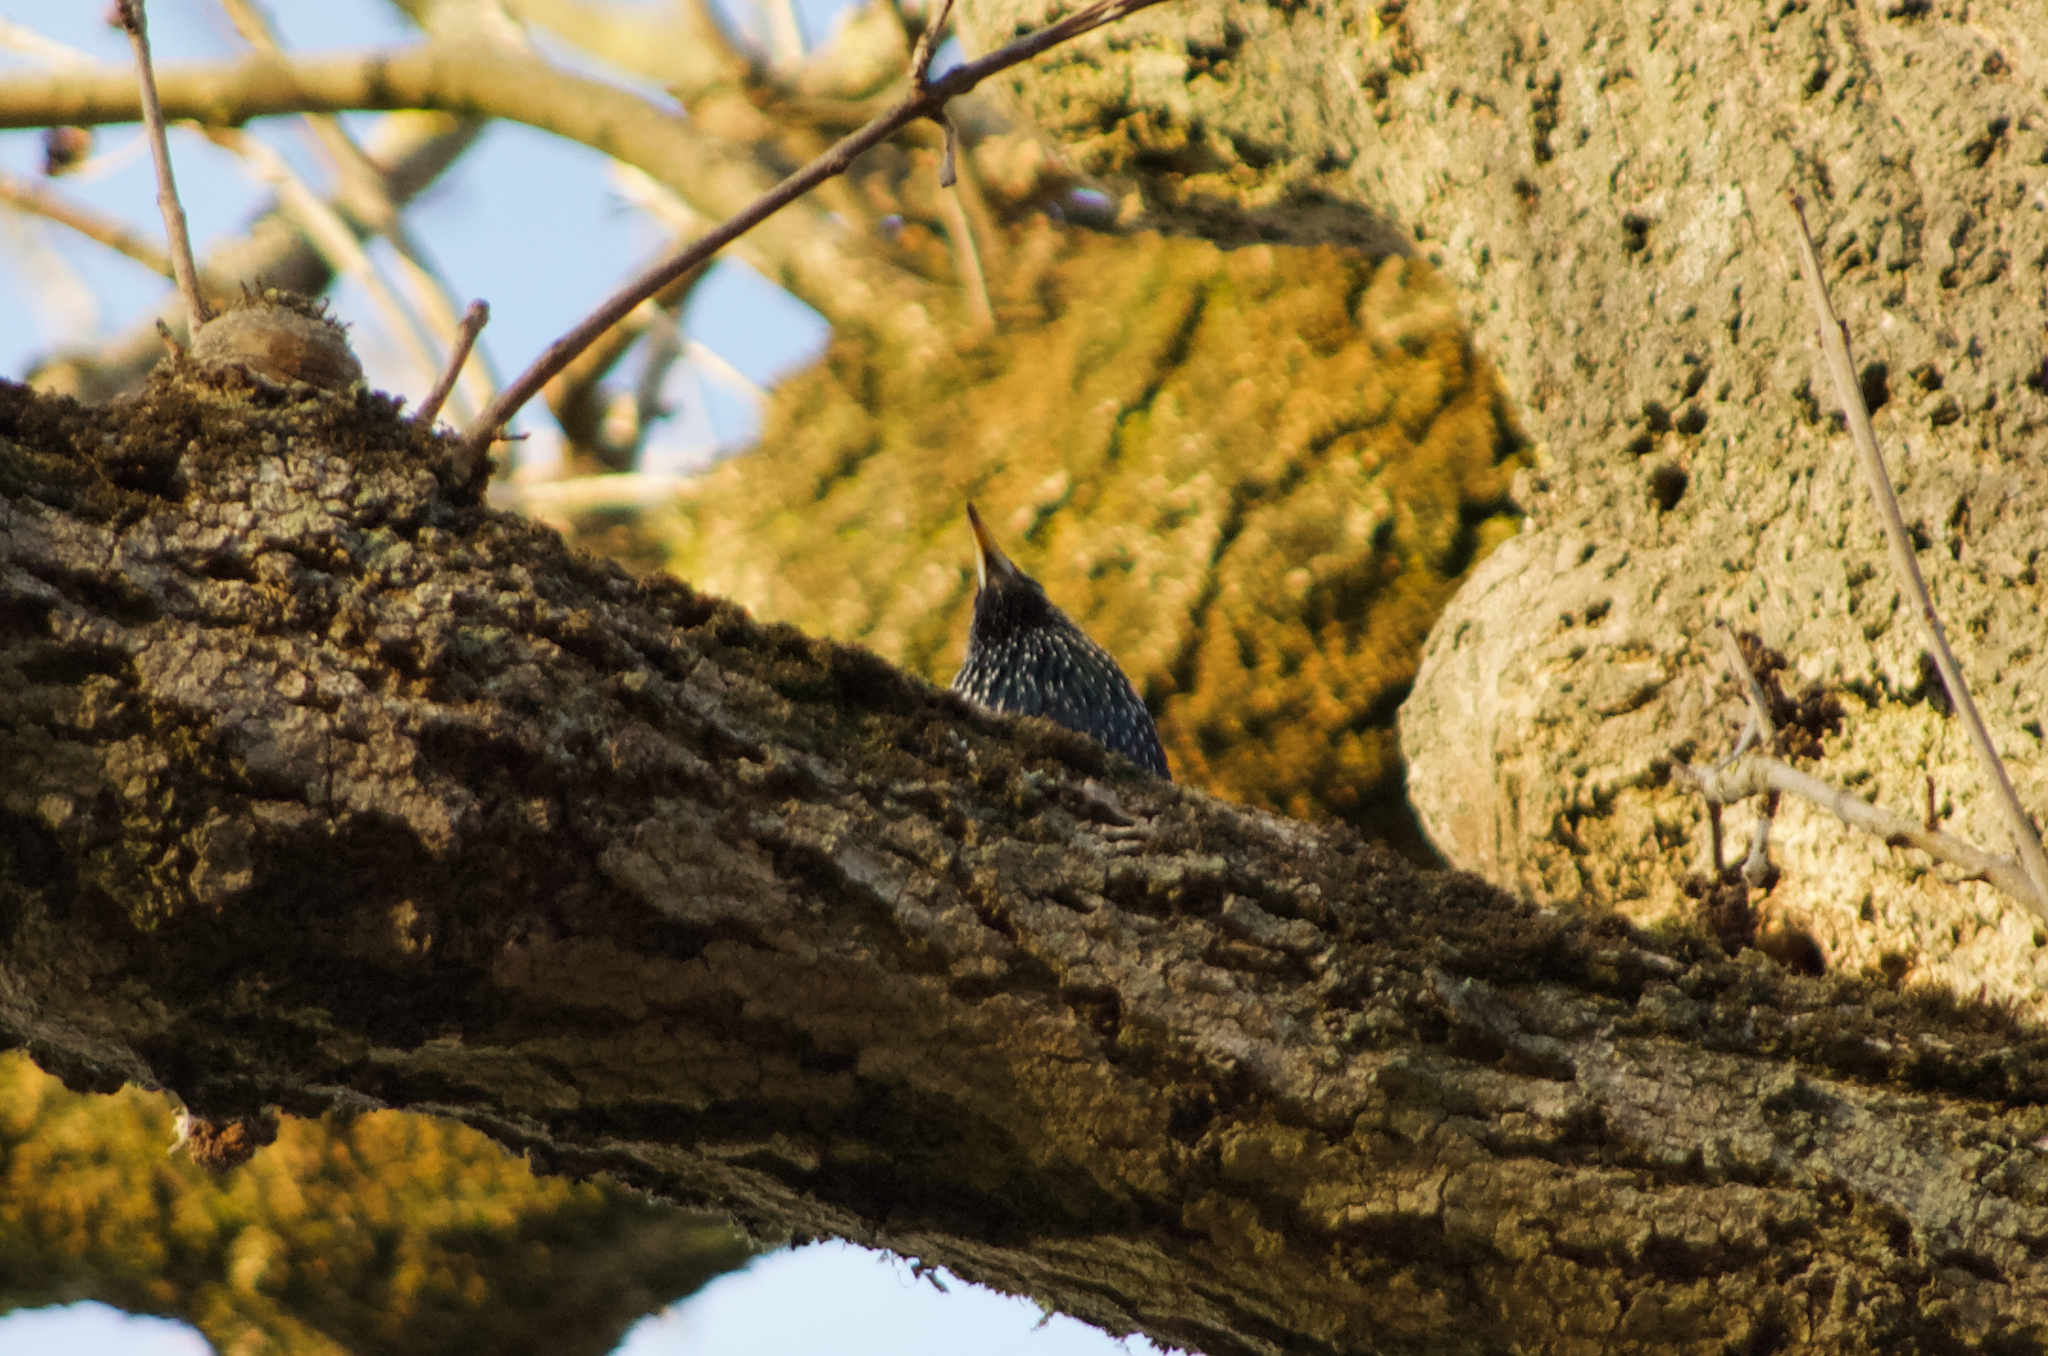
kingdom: Animalia
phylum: Chordata
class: Aves
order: Passeriformes
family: Sturnidae
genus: Sturnus
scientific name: Sturnus vulgaris
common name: Common starling
